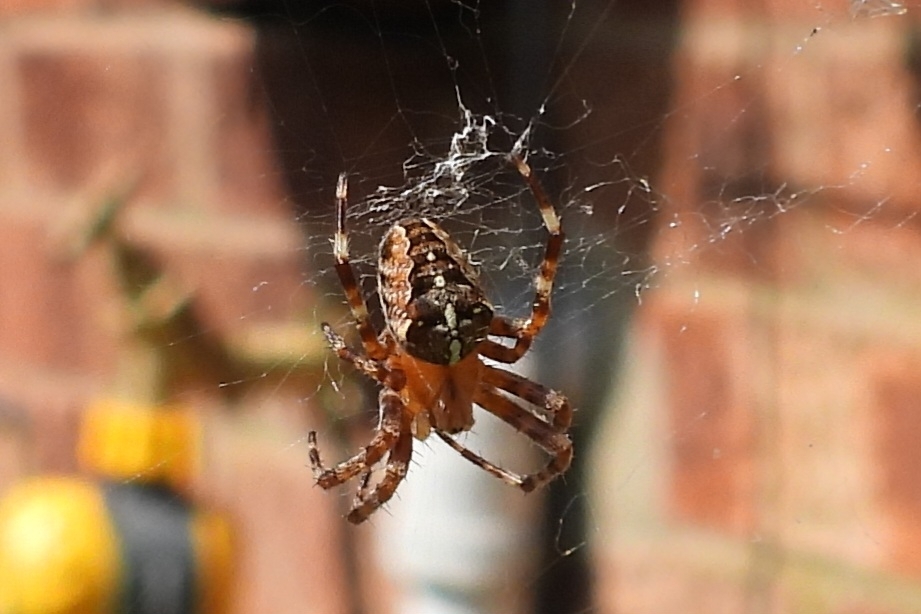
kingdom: Animalia
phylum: Arthropoda
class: Arachnida
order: Araneae
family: Araneidae
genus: Araneus
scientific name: Araneus diadematus
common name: Cross orbweaver
